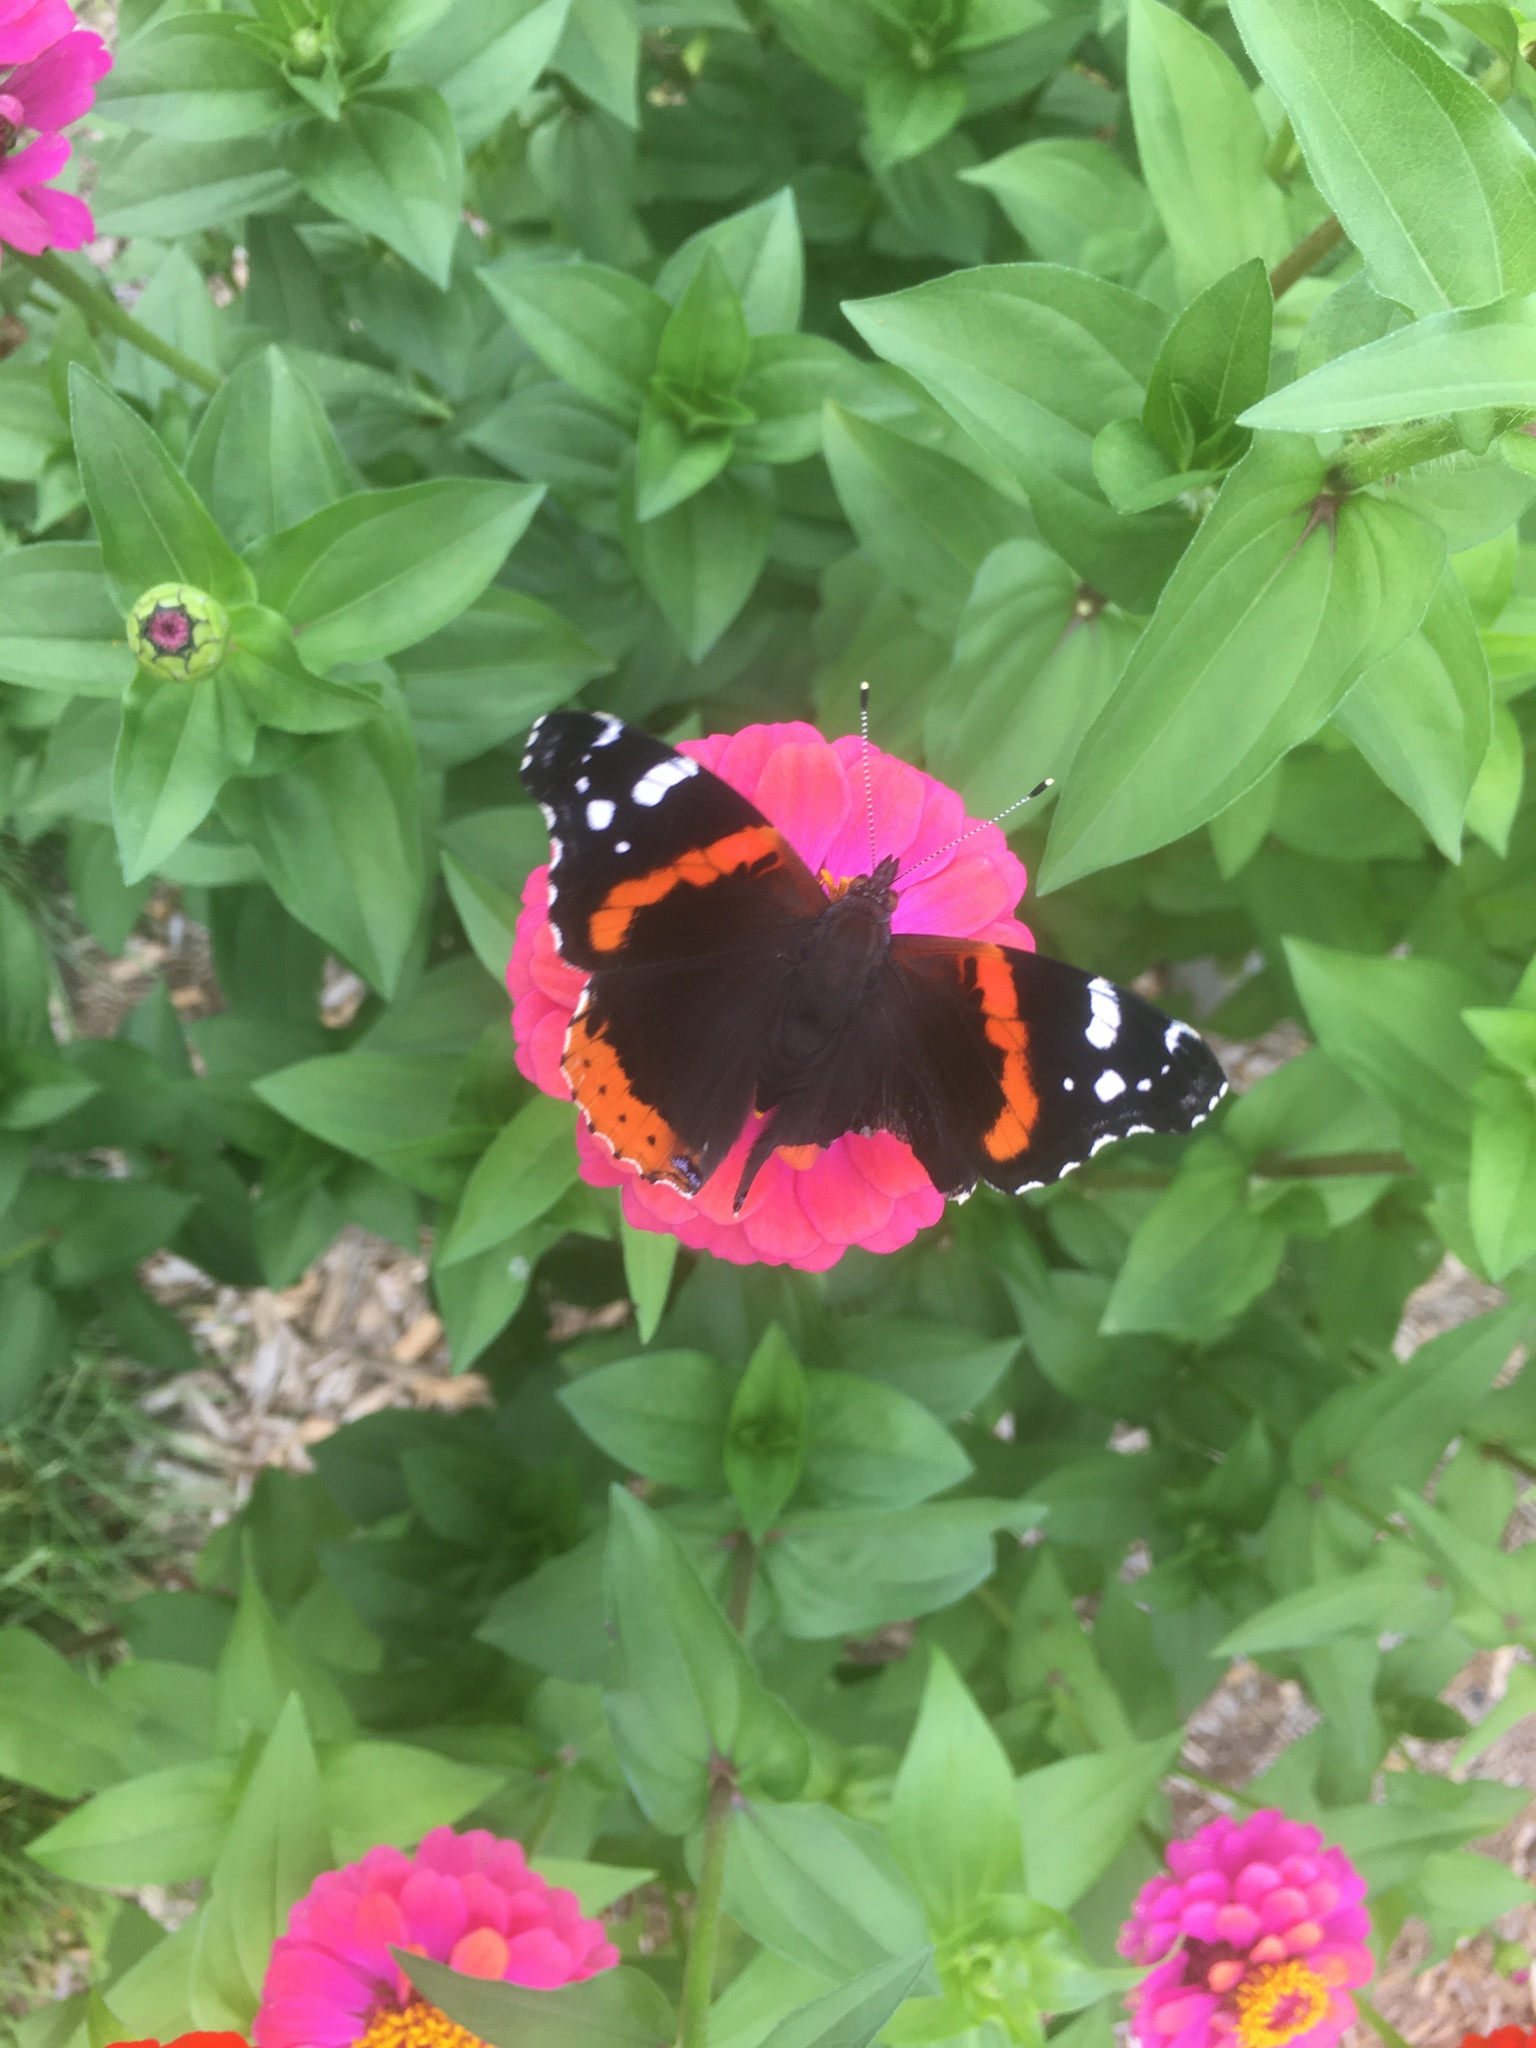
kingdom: Animalia
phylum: Arthropoda
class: Insecta
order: Lepidoptera
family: Nymphalidae
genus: Vanessa
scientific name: Vanessa atalanta
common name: Red admiral
